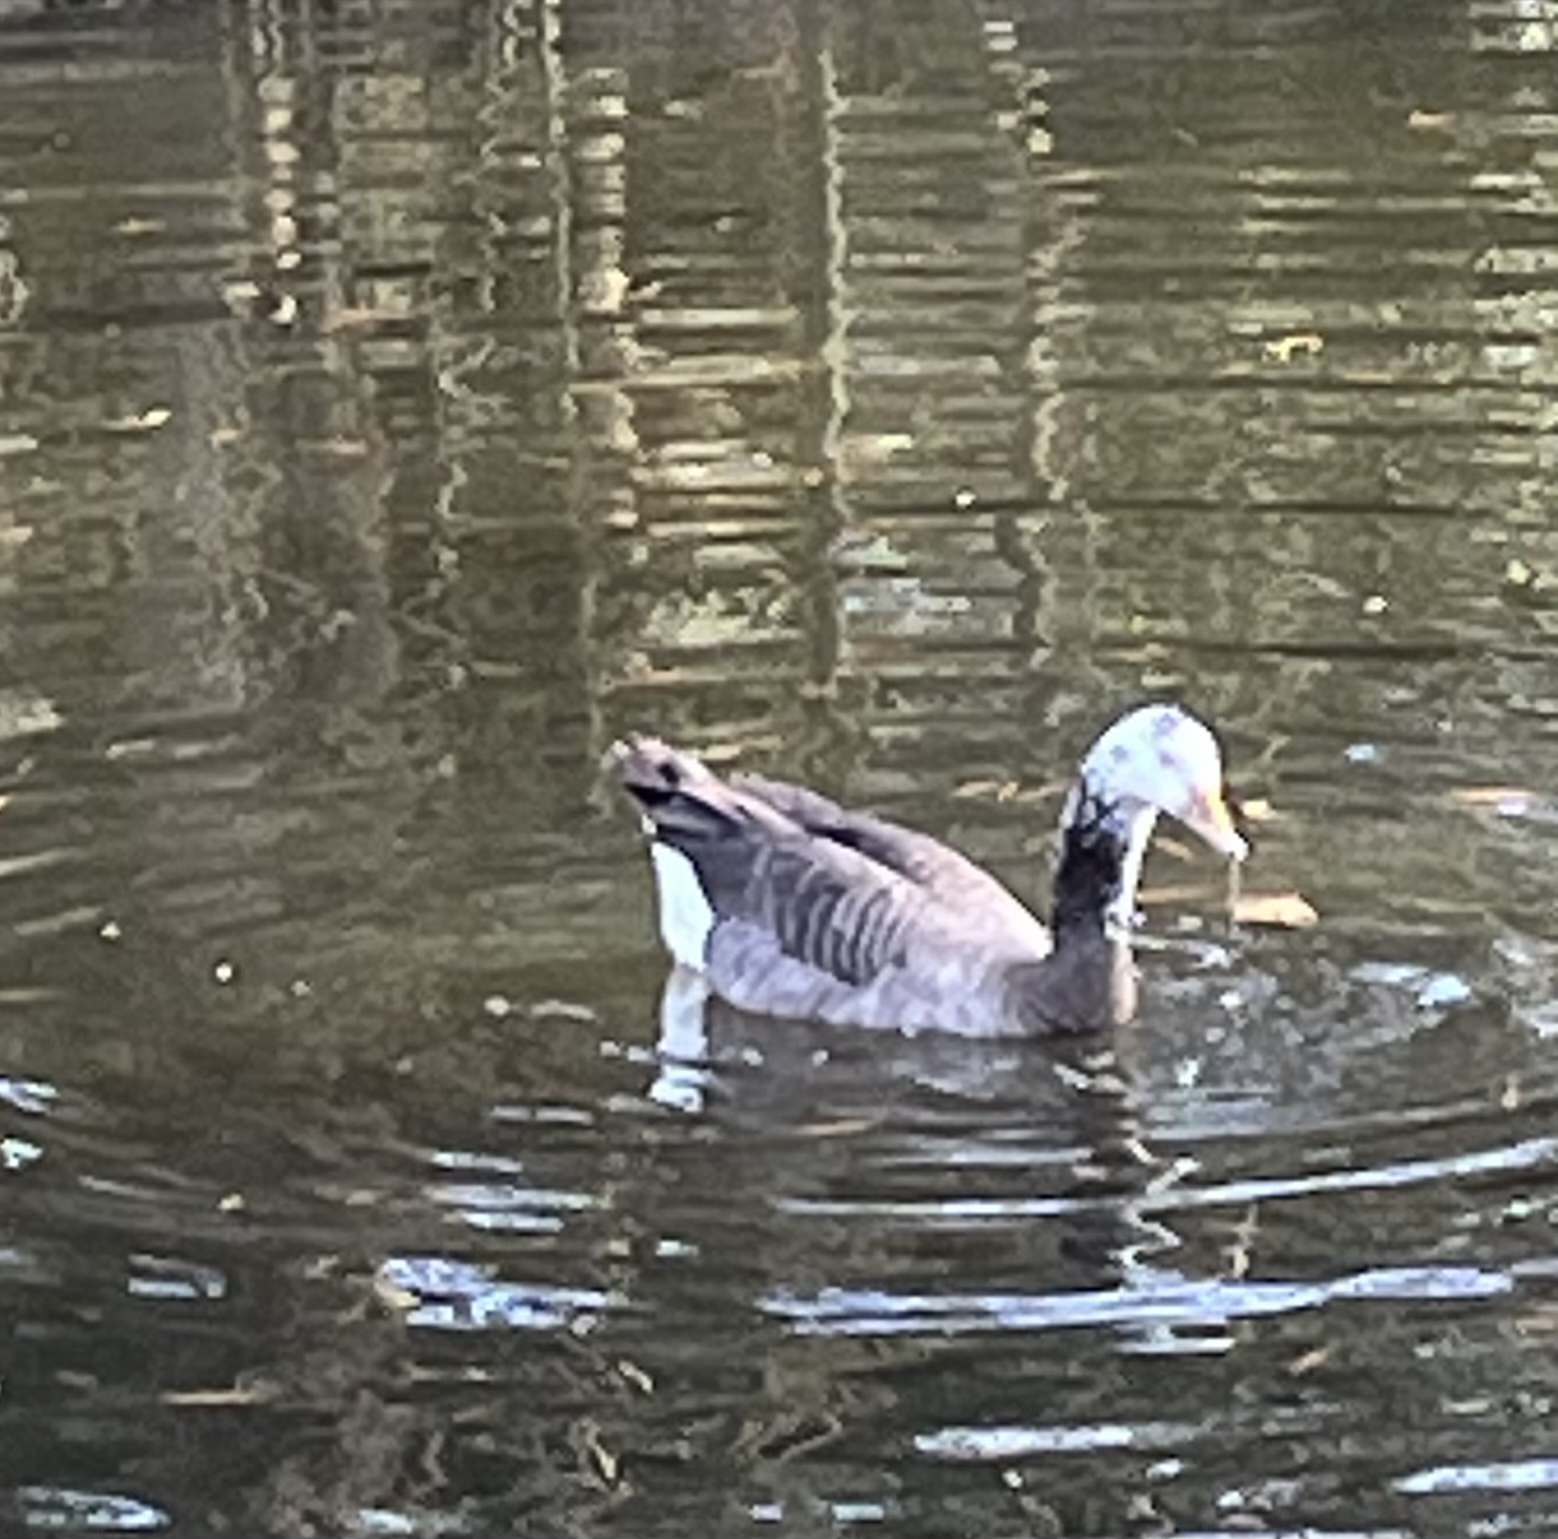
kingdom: Animalia
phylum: Chordata
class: Aves
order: Anseriformes
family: Anatidae
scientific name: Anatidae
